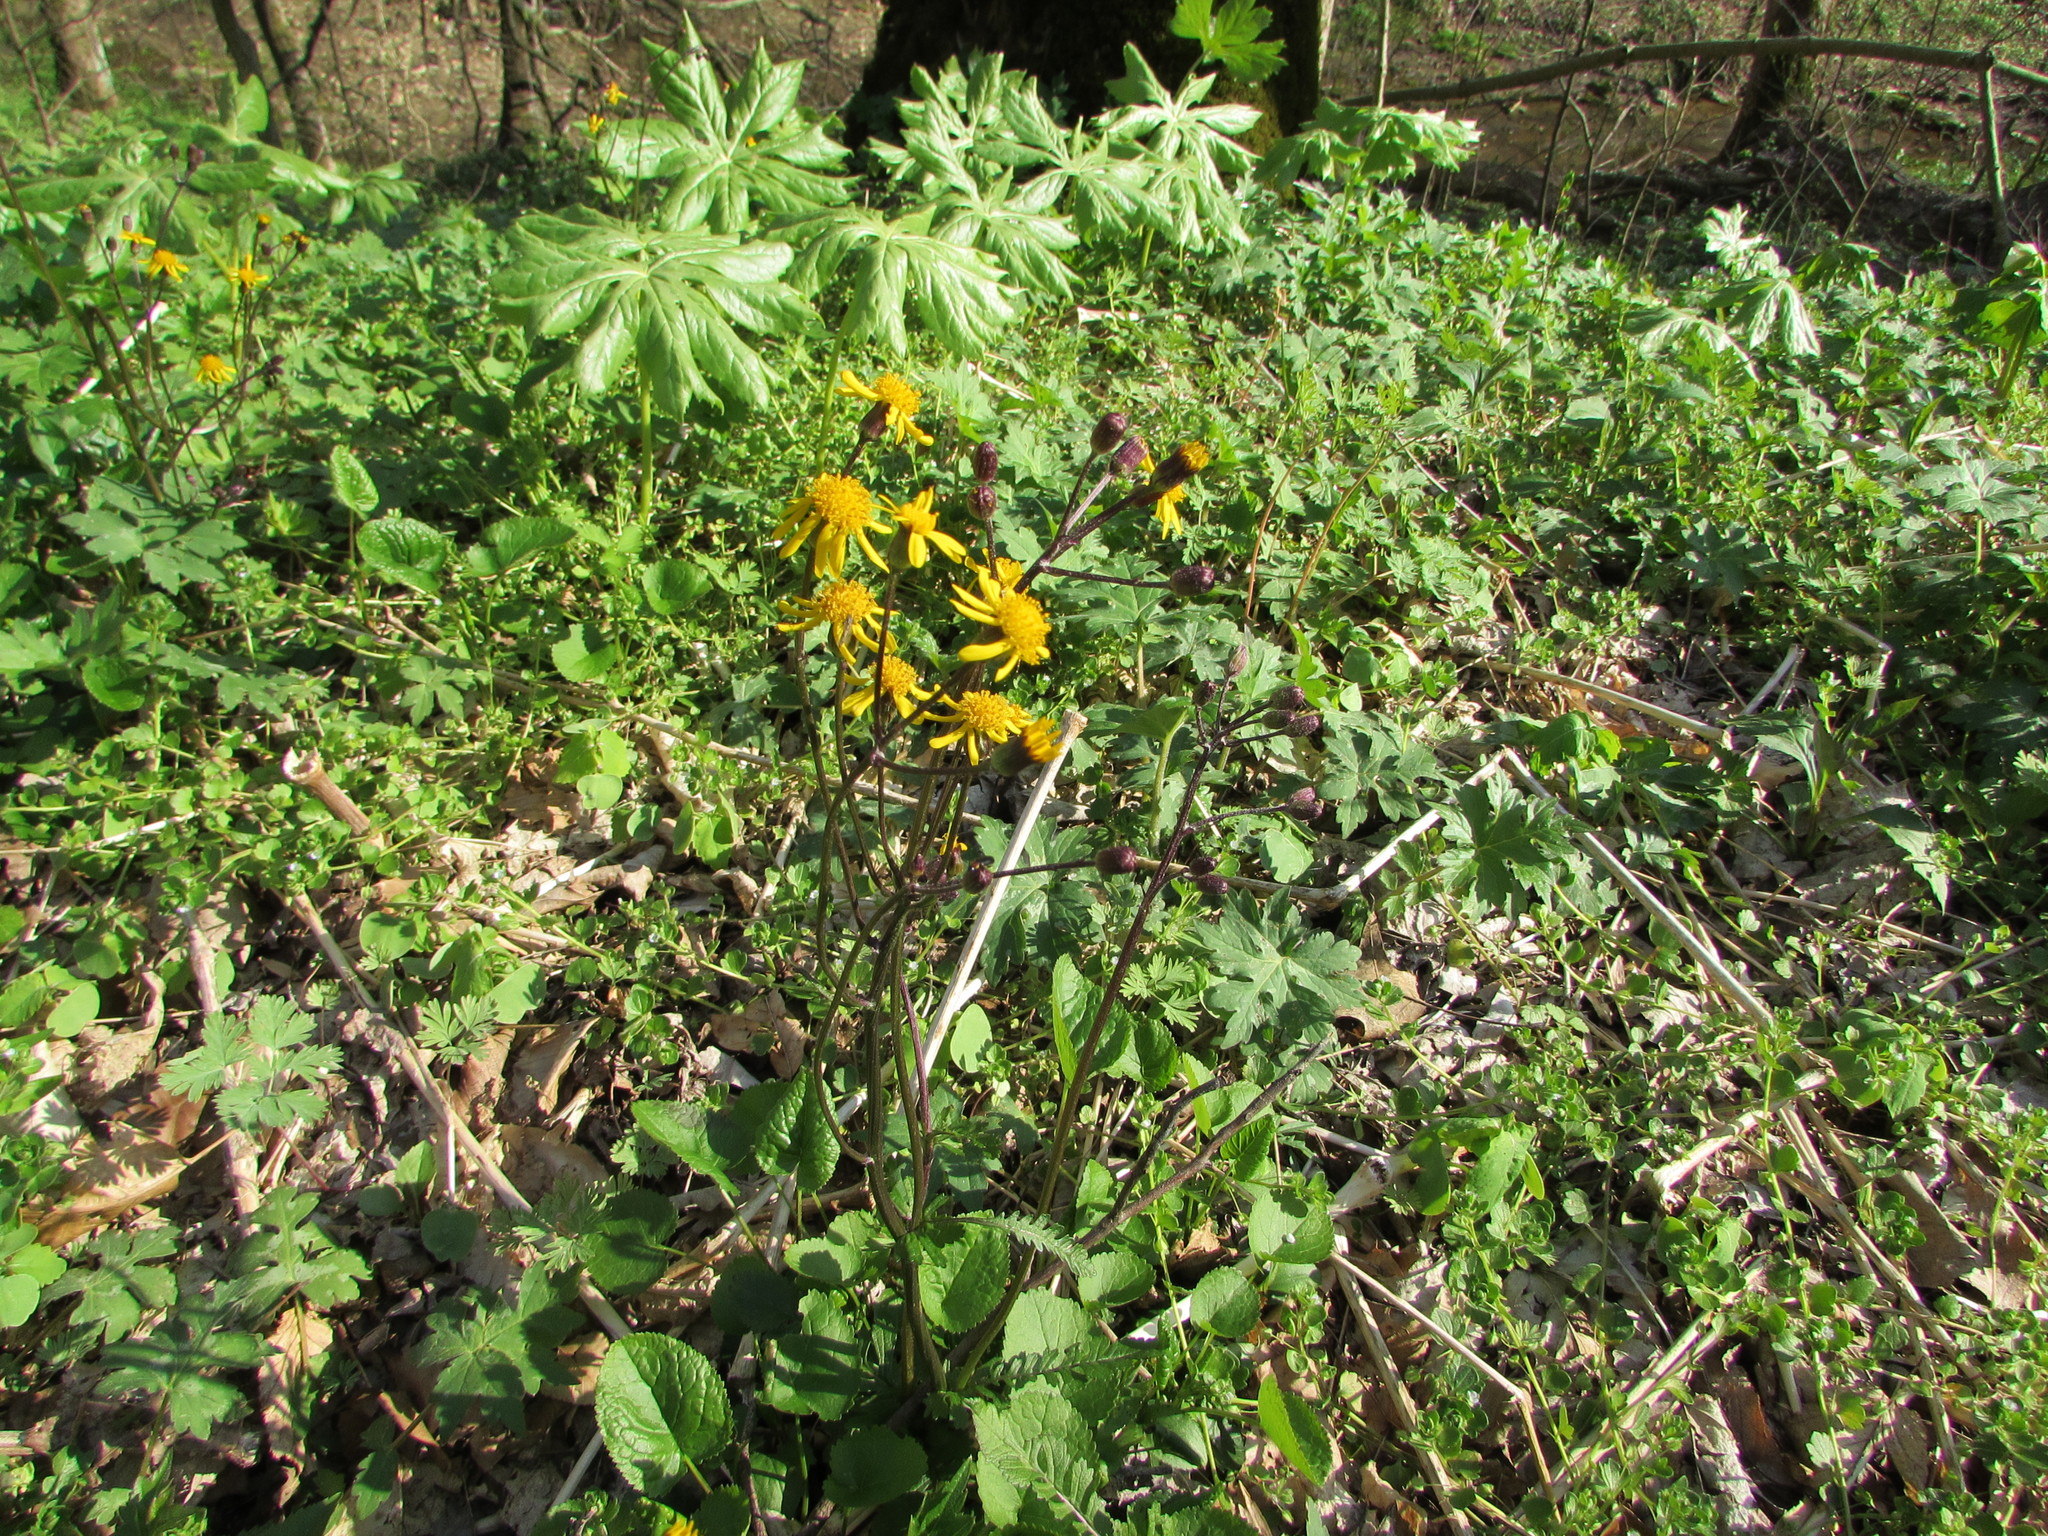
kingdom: Plantae
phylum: Tracheophyta
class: Magnoliopsida
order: Asterales
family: Asteraceae
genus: Packera
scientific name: Packera aurea
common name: Golden groundsel
